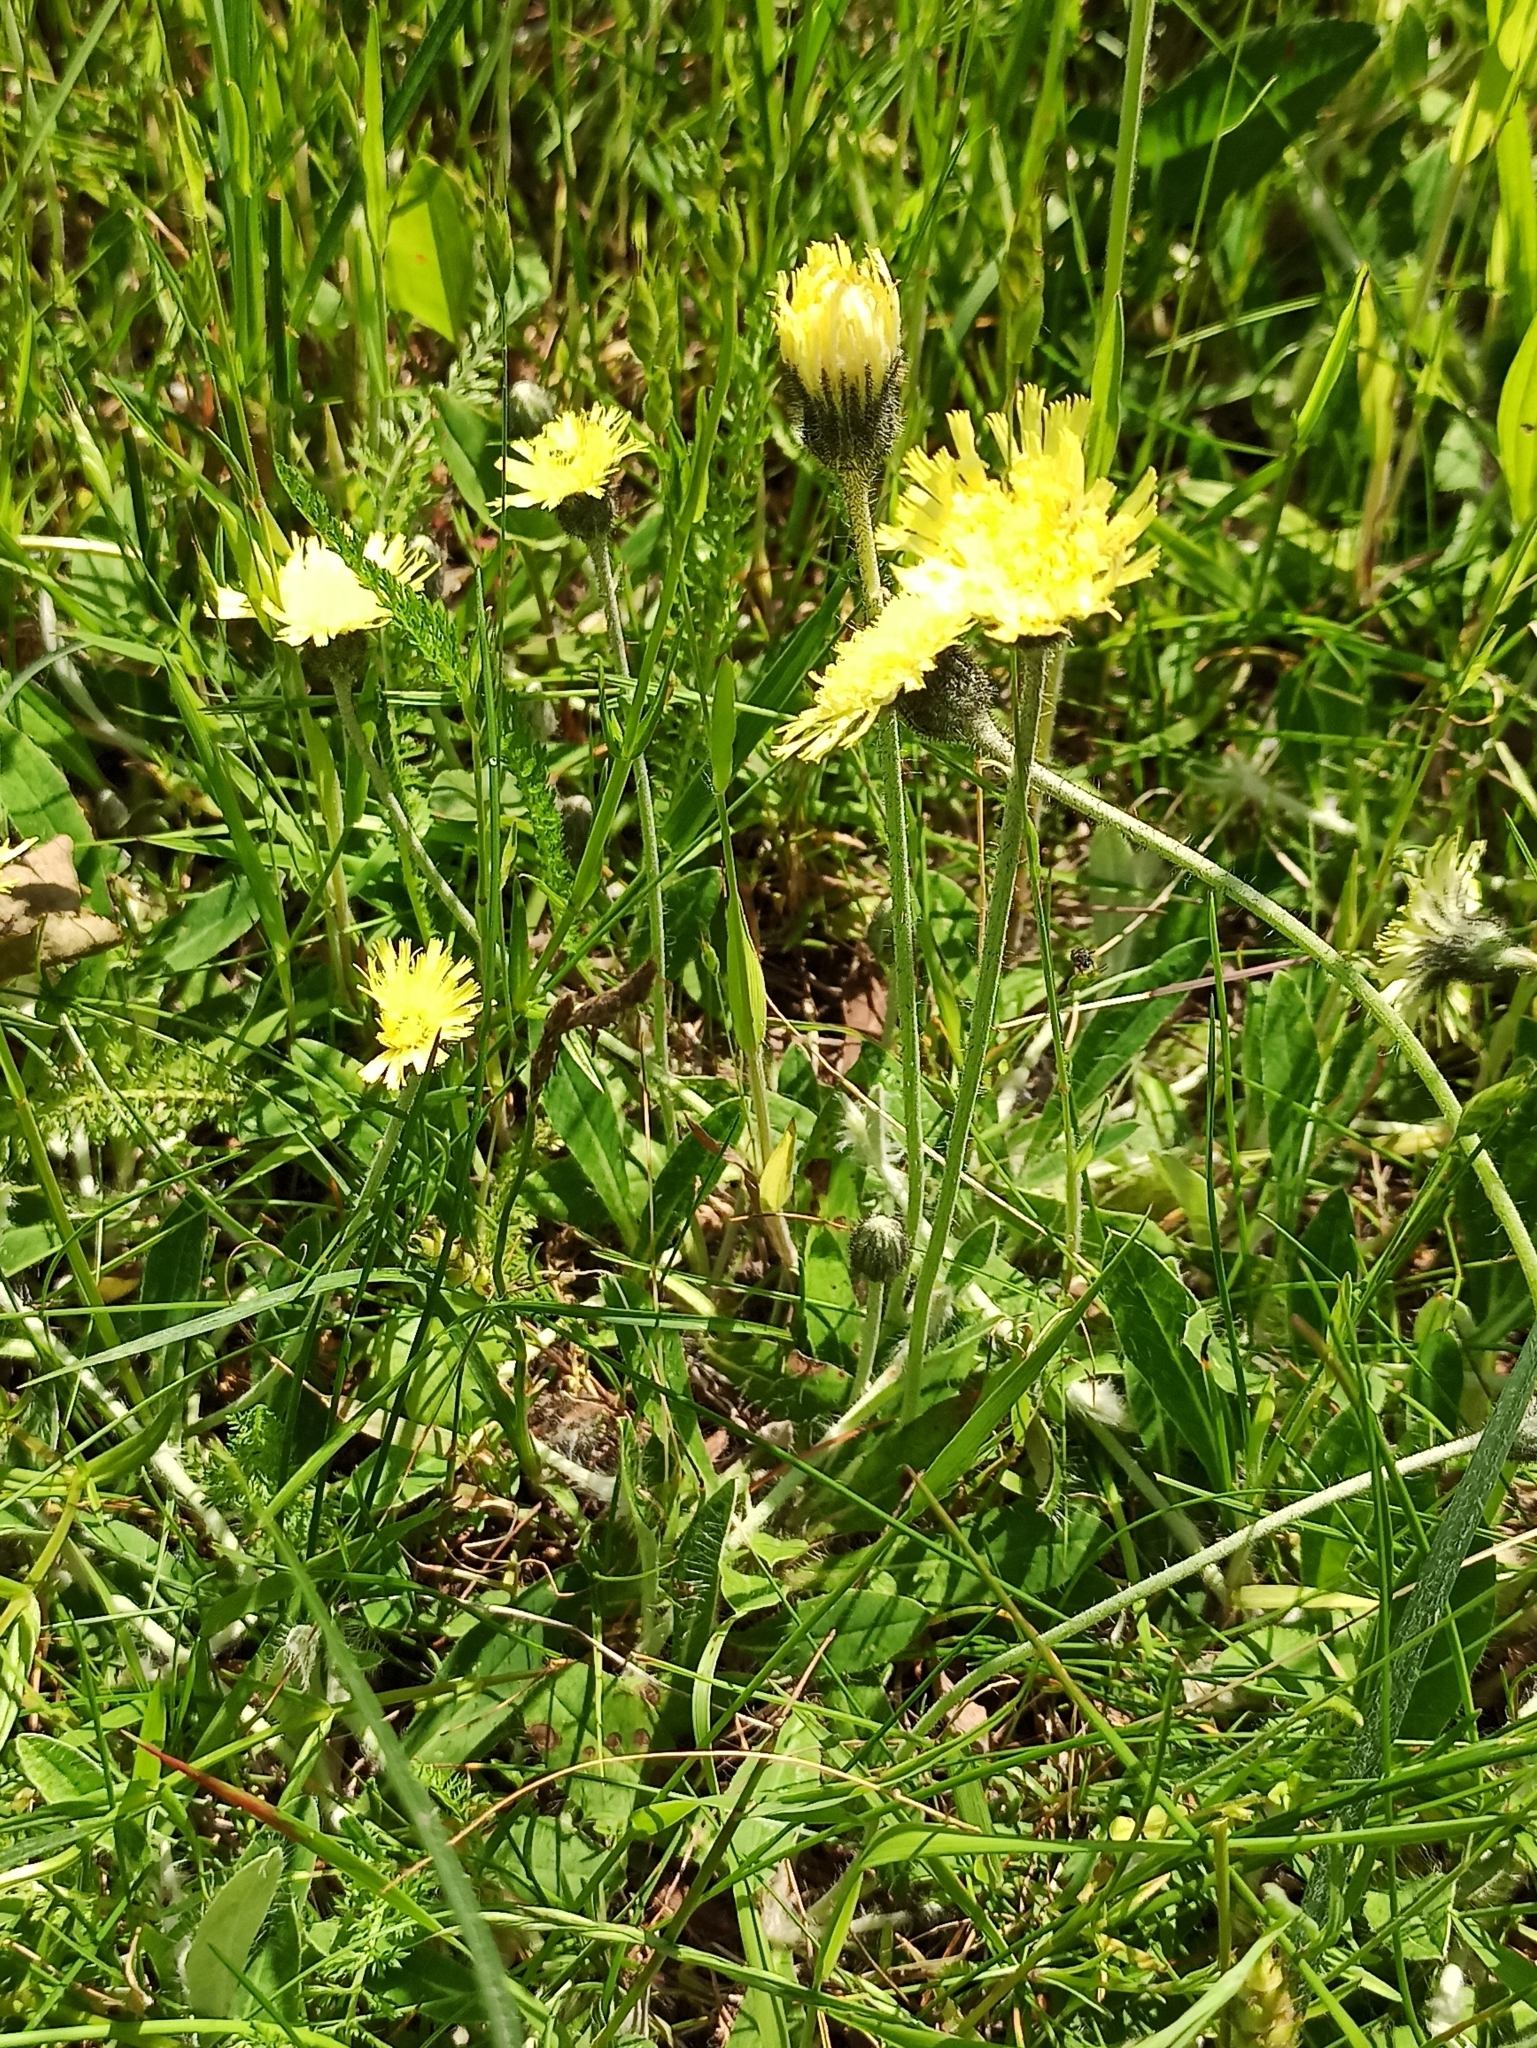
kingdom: Plantae
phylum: Tracheophyta
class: Magnoliopsida
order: Asterales
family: Asteraceae
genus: Pilosella
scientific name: Pilosella officinarum
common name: Mouse-ear hawkweed
